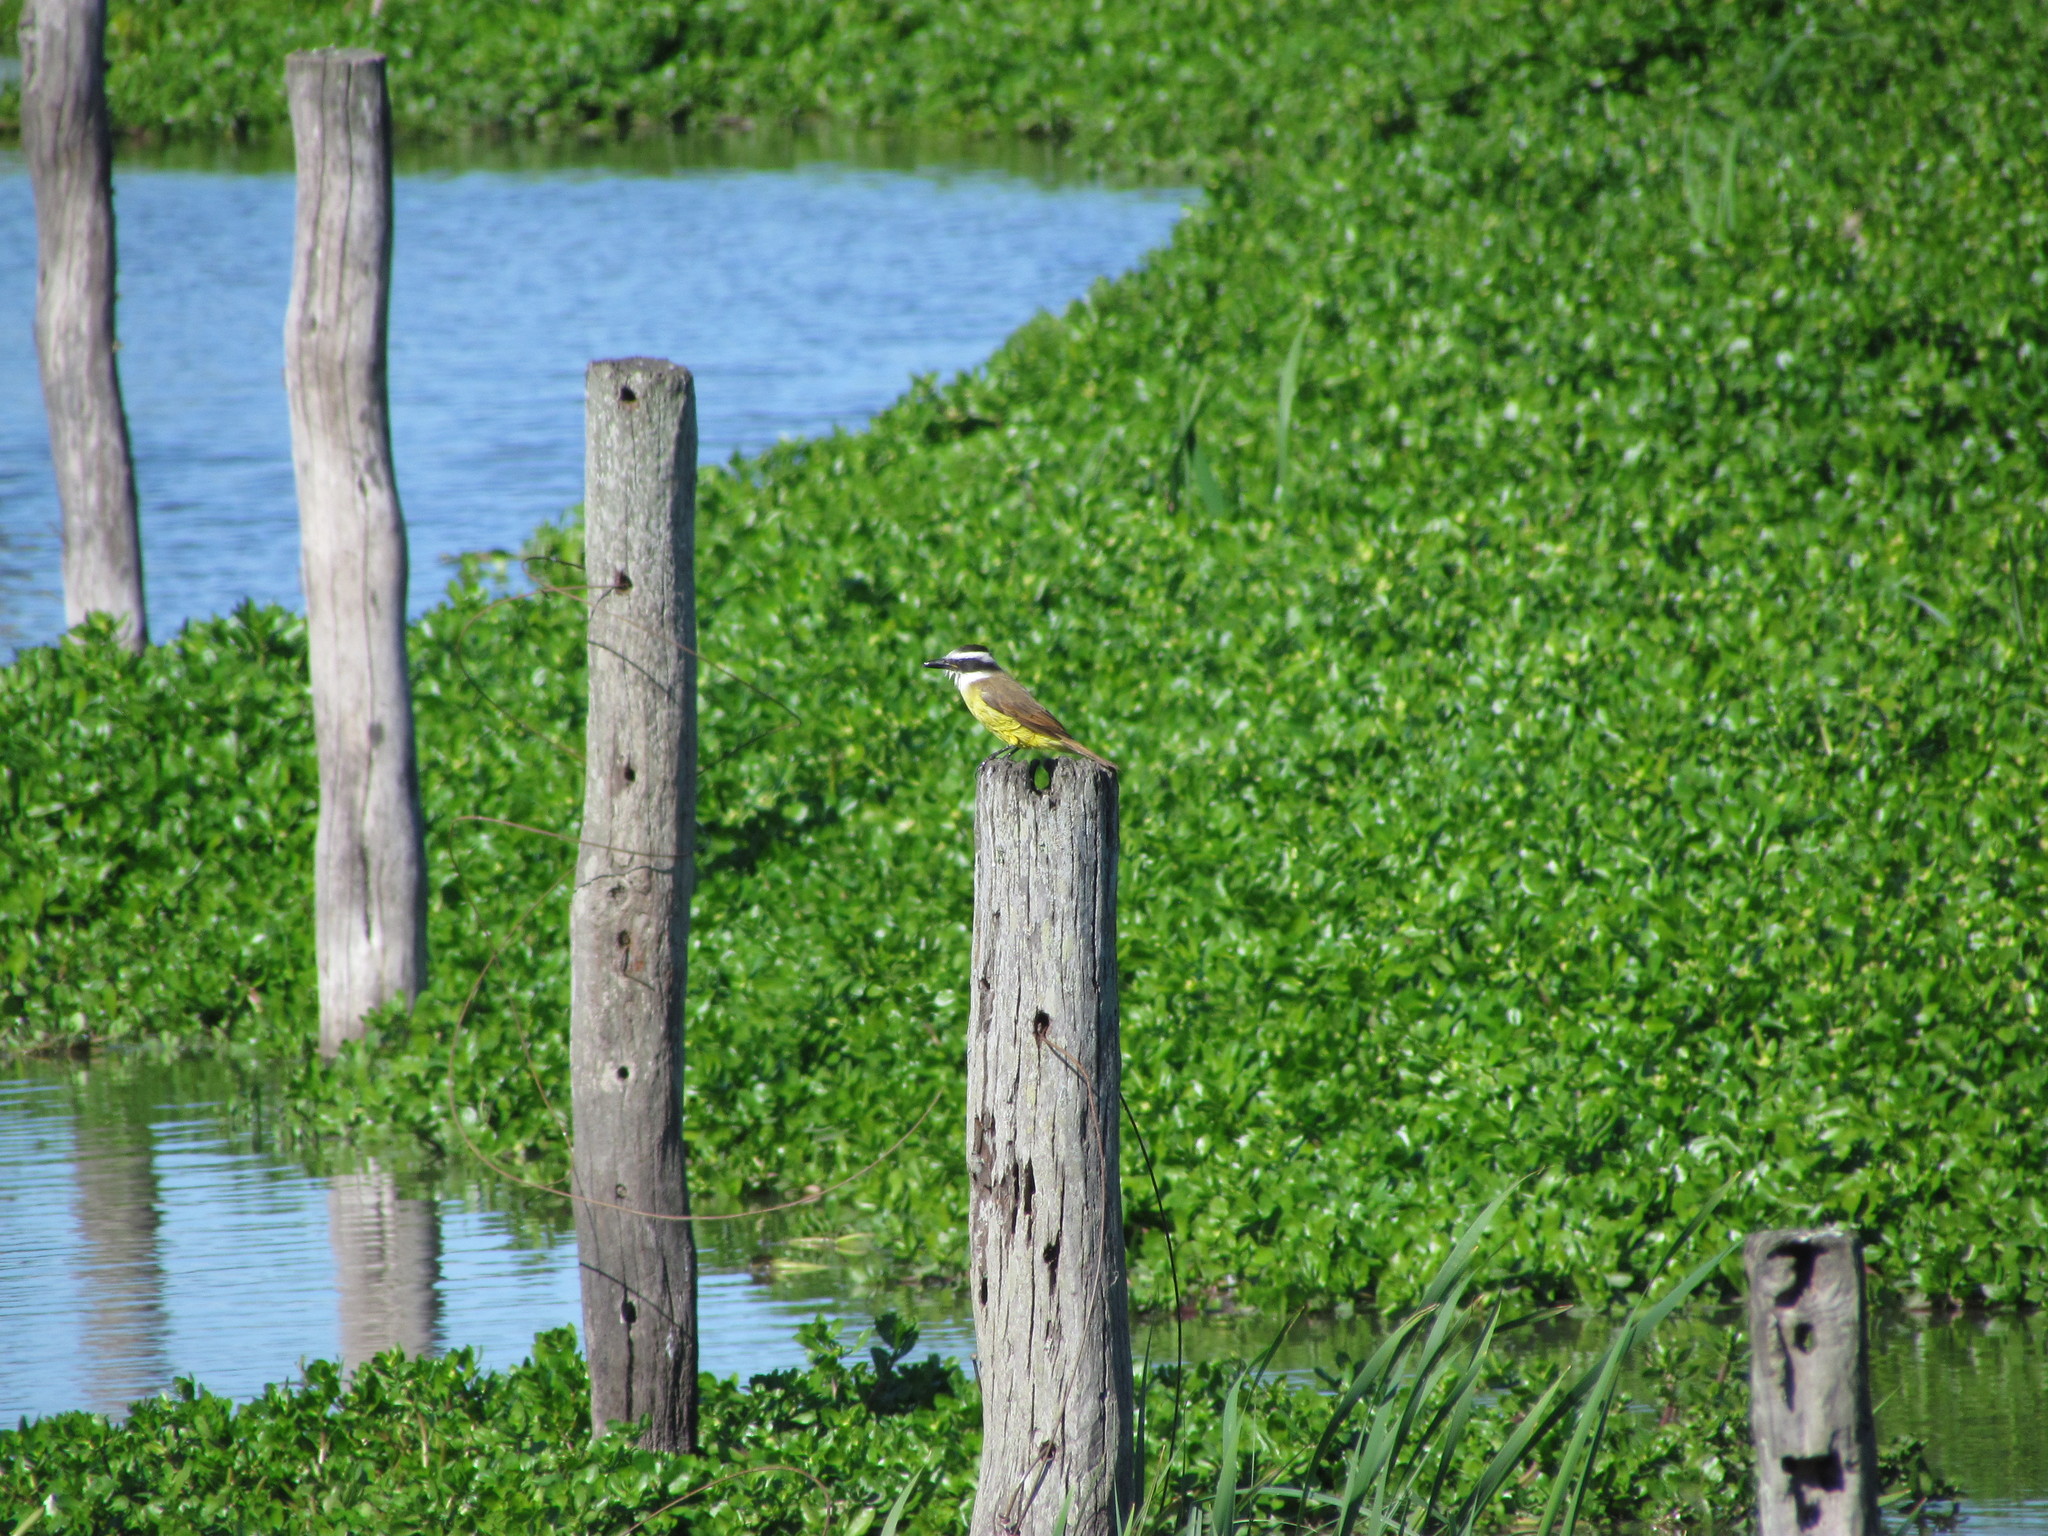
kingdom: Animalia
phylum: Chordata
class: Aves
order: Passeriformes
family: Tyrannidae
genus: Pitangus
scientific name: Pitangus sulphuratus
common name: Great kiskadee
